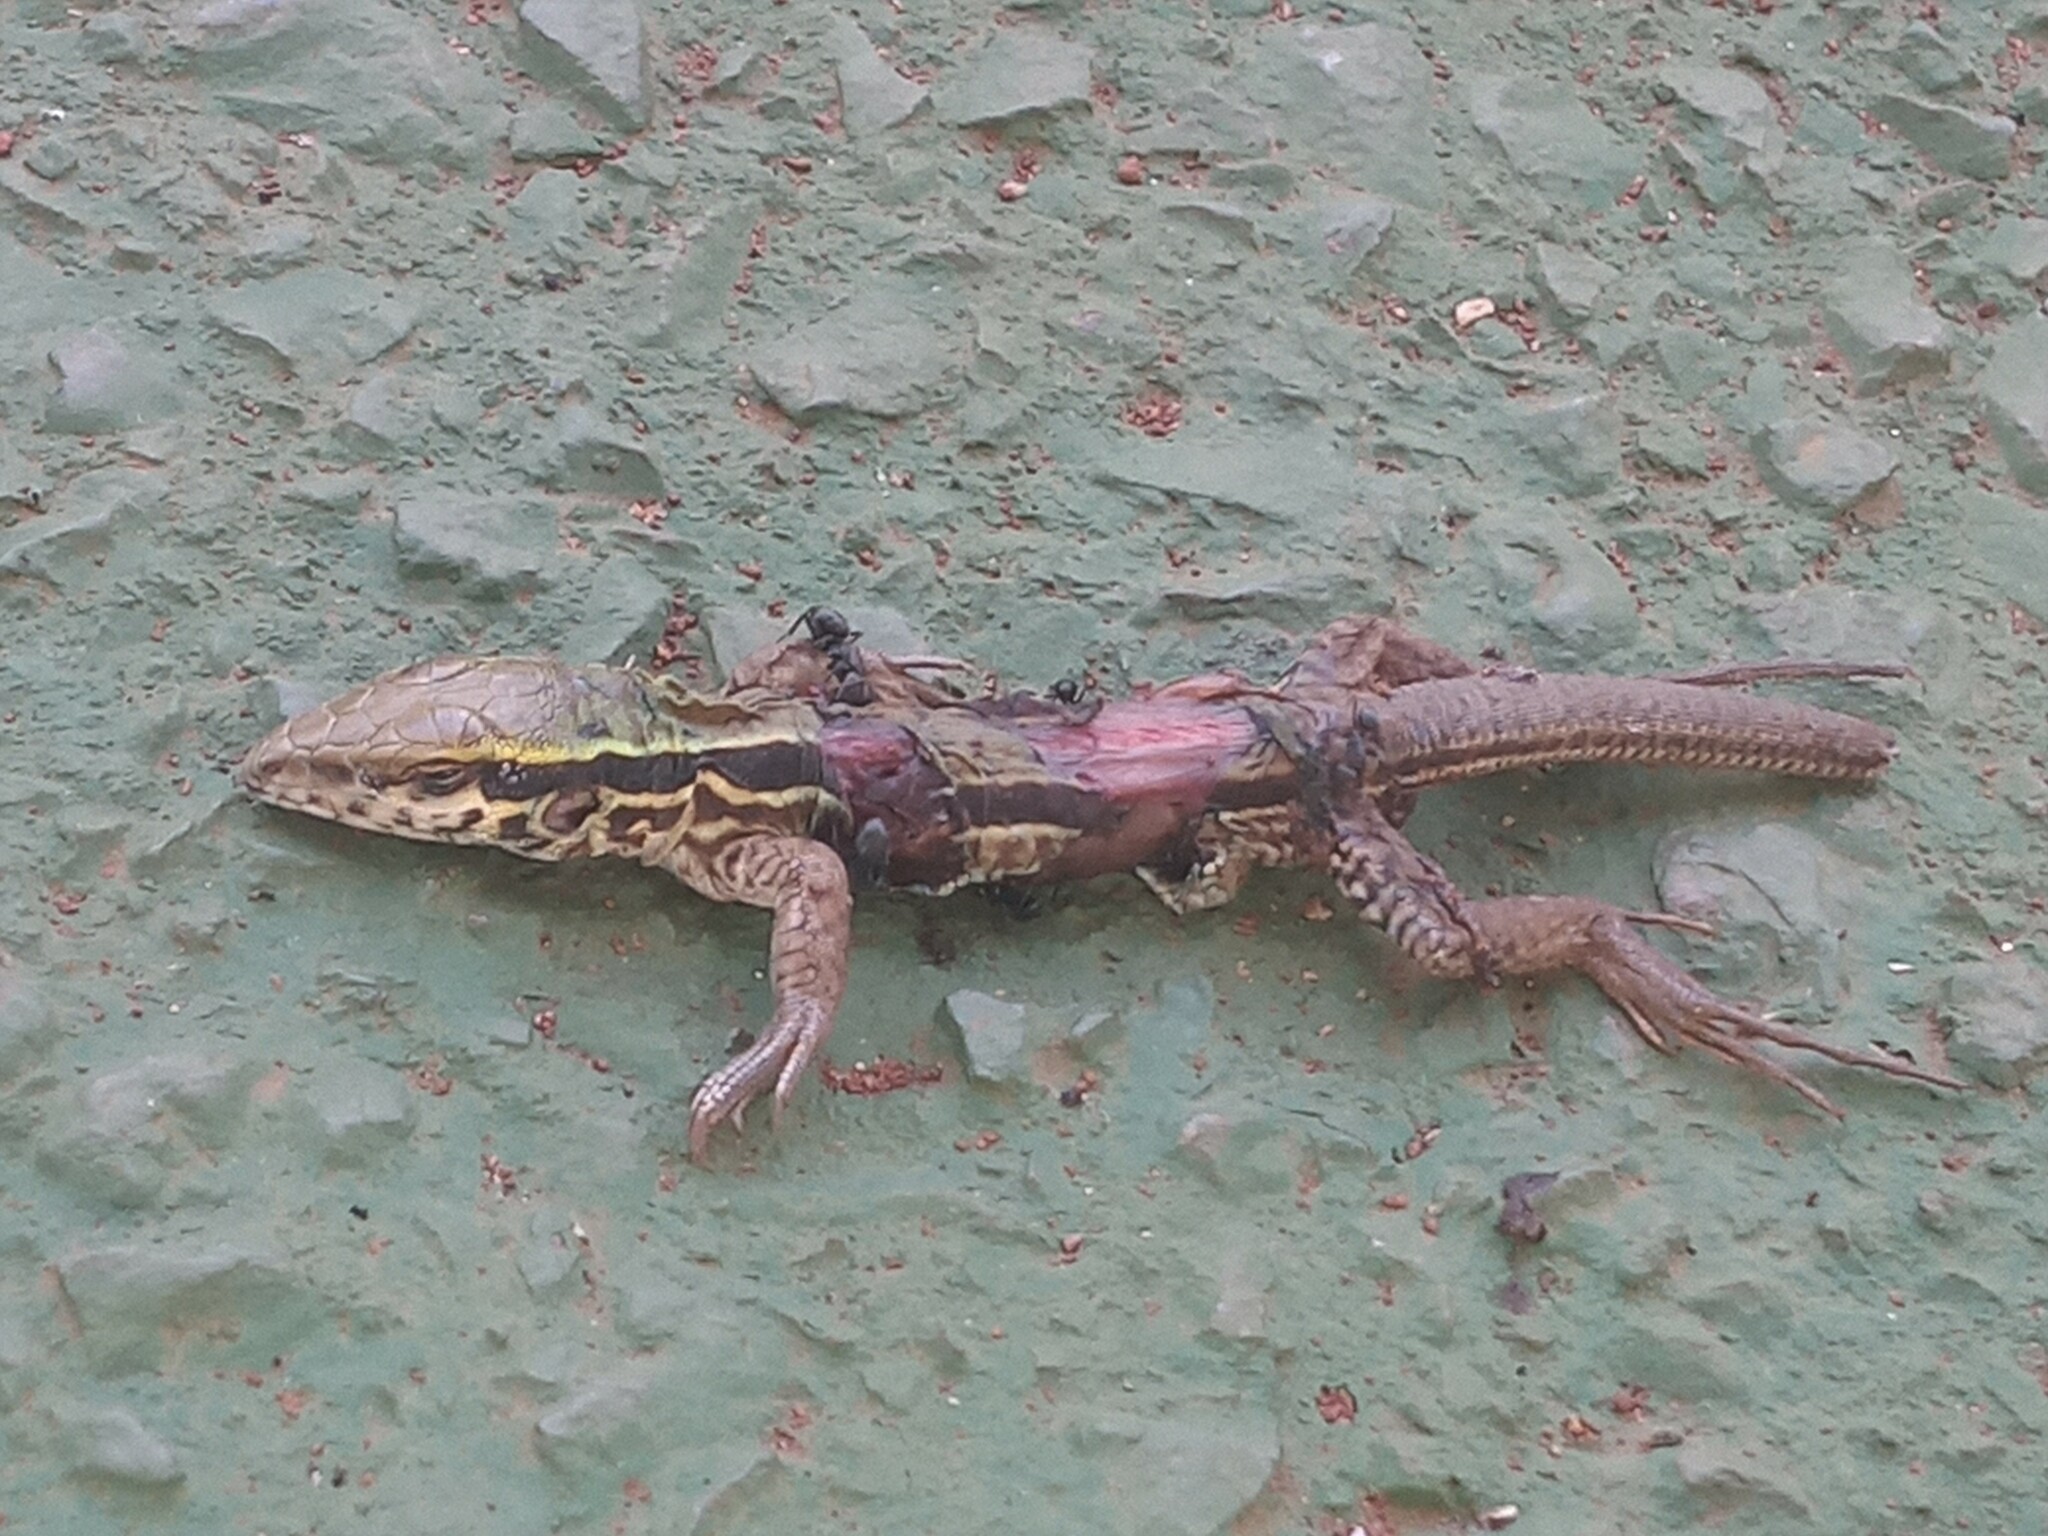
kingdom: Animalia
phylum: Chordata
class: Squamata
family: Teiidae
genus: Ameiva
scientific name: Ameiva ameiva
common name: Giant ameiva
